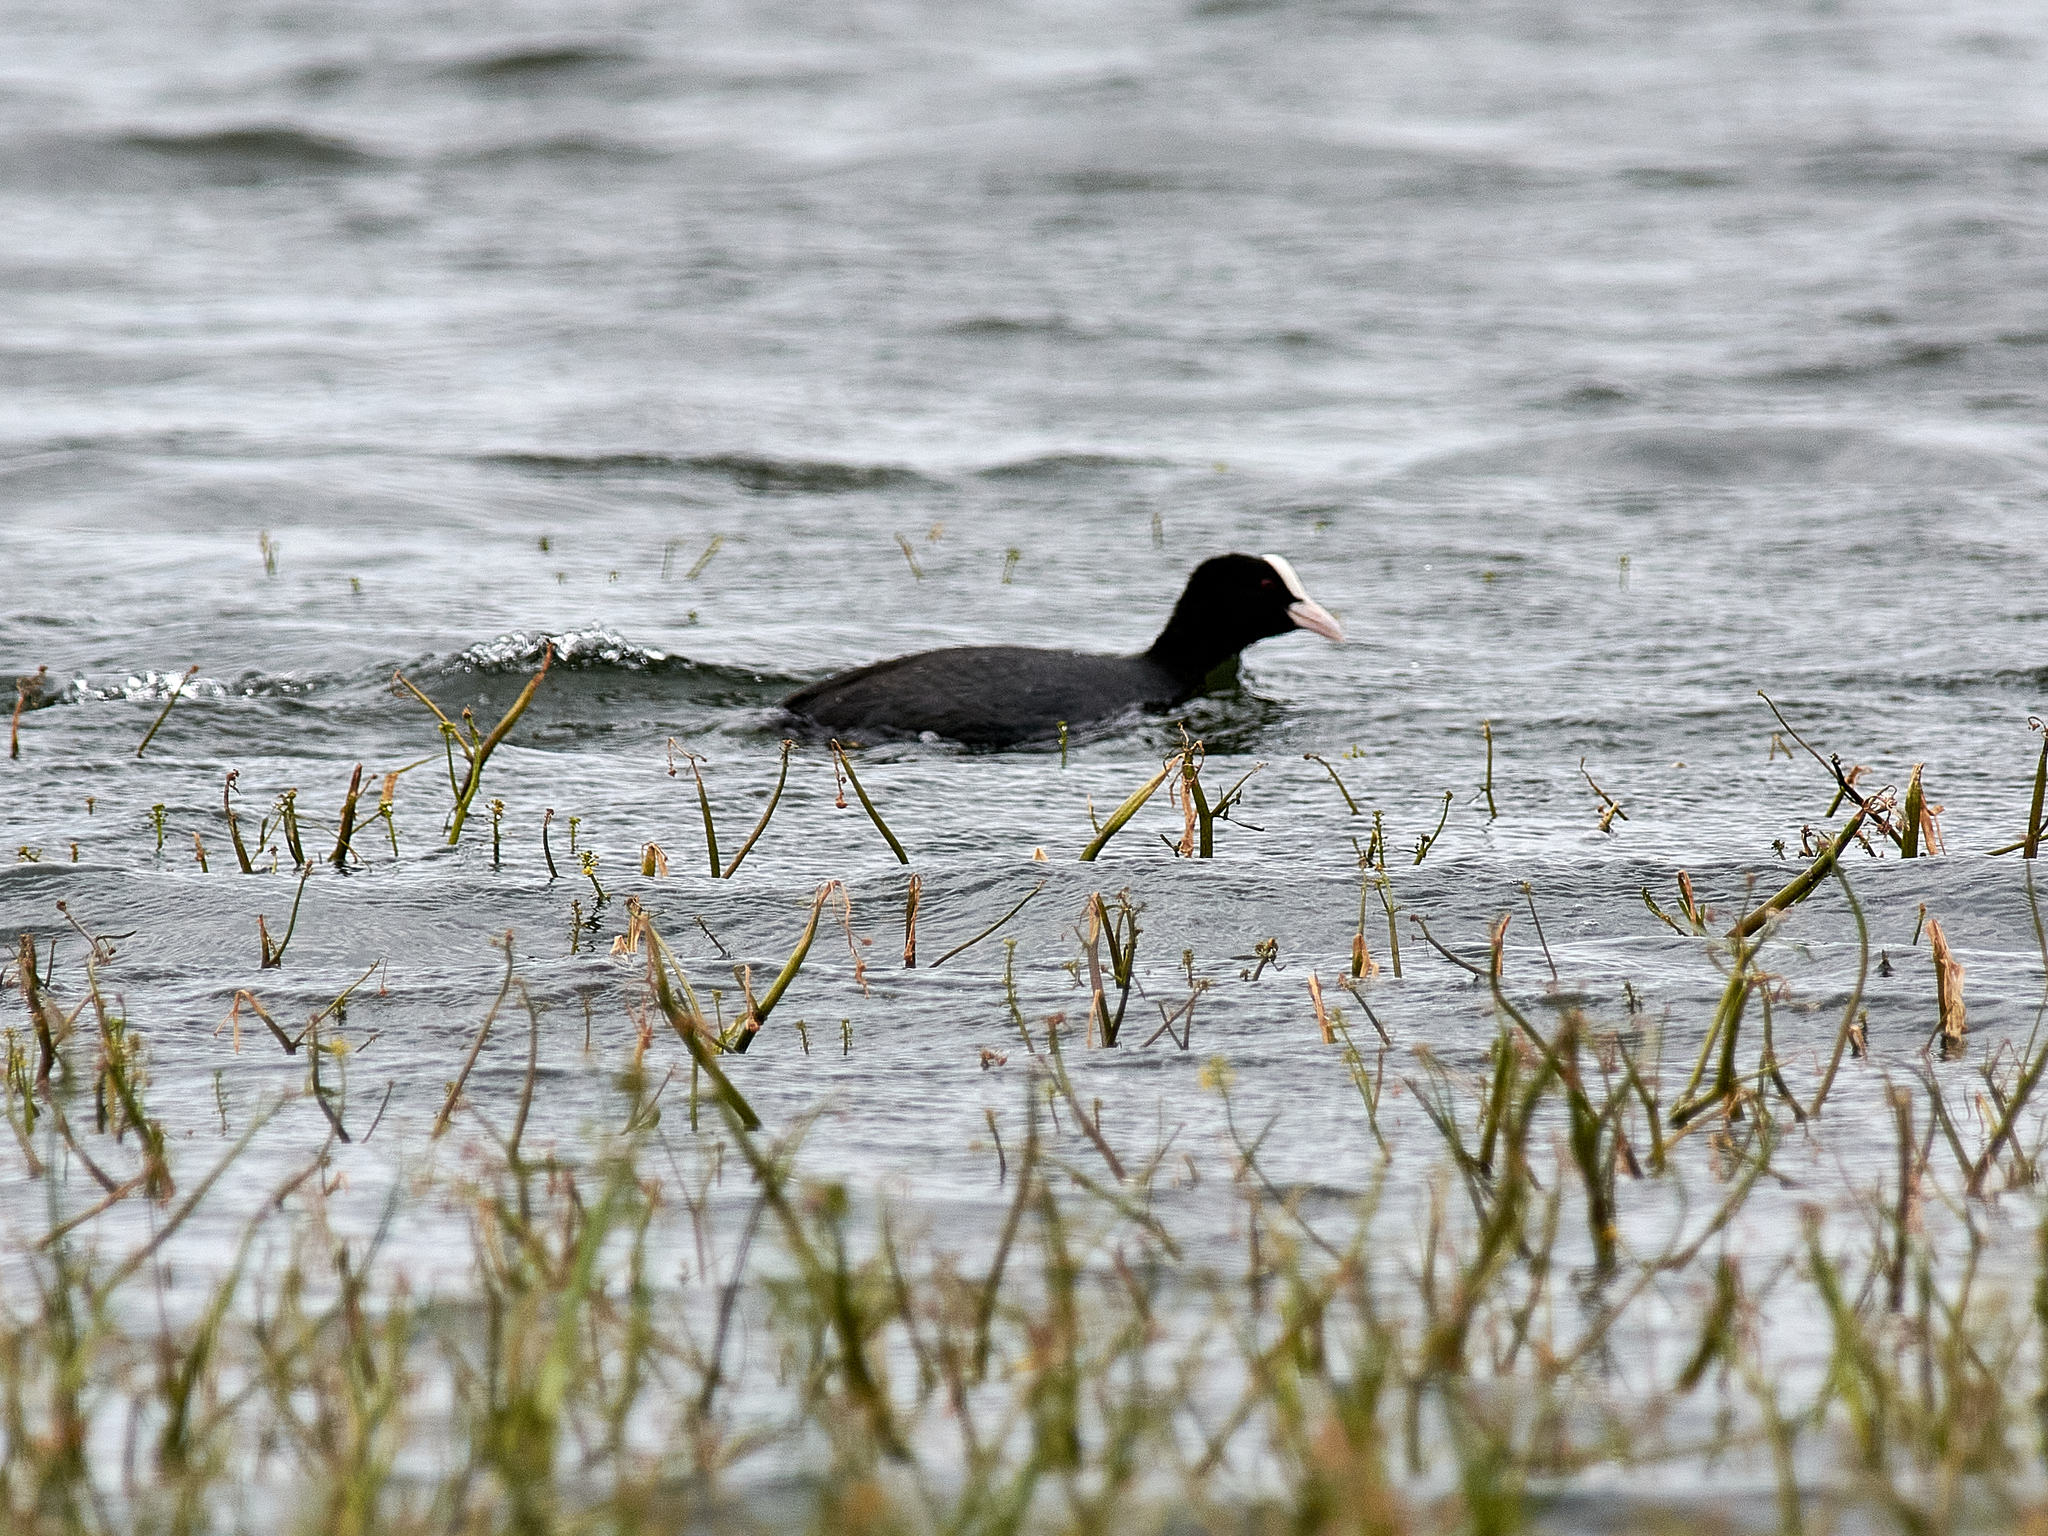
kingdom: Animalia
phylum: Chordata
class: Aves
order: Gruiformes
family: Rallidae
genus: Fulica
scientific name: Fulica atra
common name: Eurasian coot
